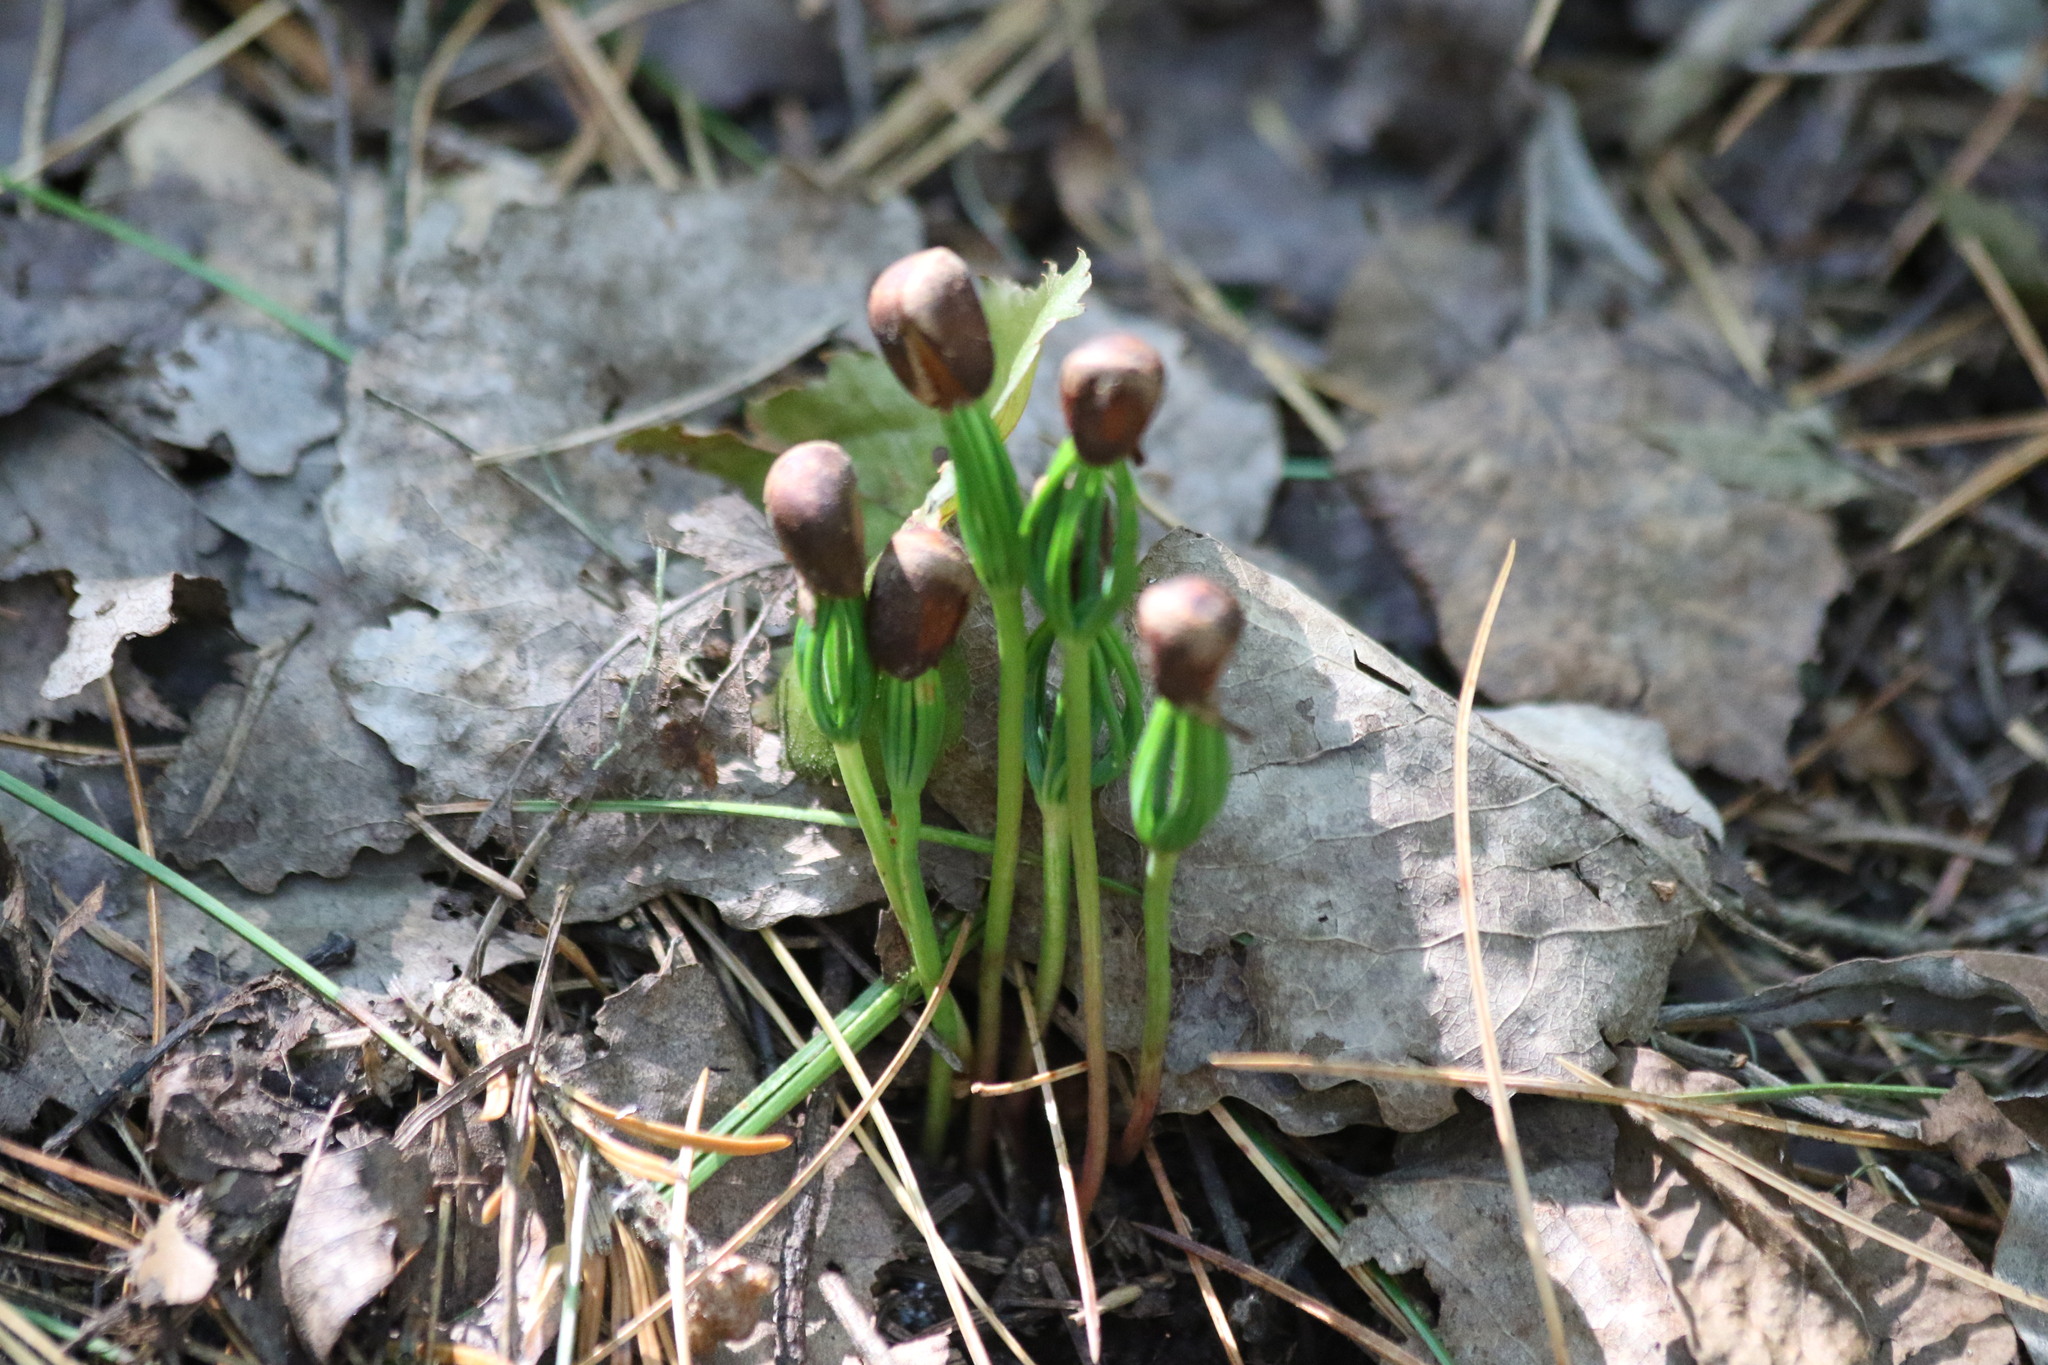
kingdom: Plantae
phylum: Tracheophyta
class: Pinopsida
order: Pinales
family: Pinaceae
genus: Pinus
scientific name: Pinus sibirica
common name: Siberian pine
